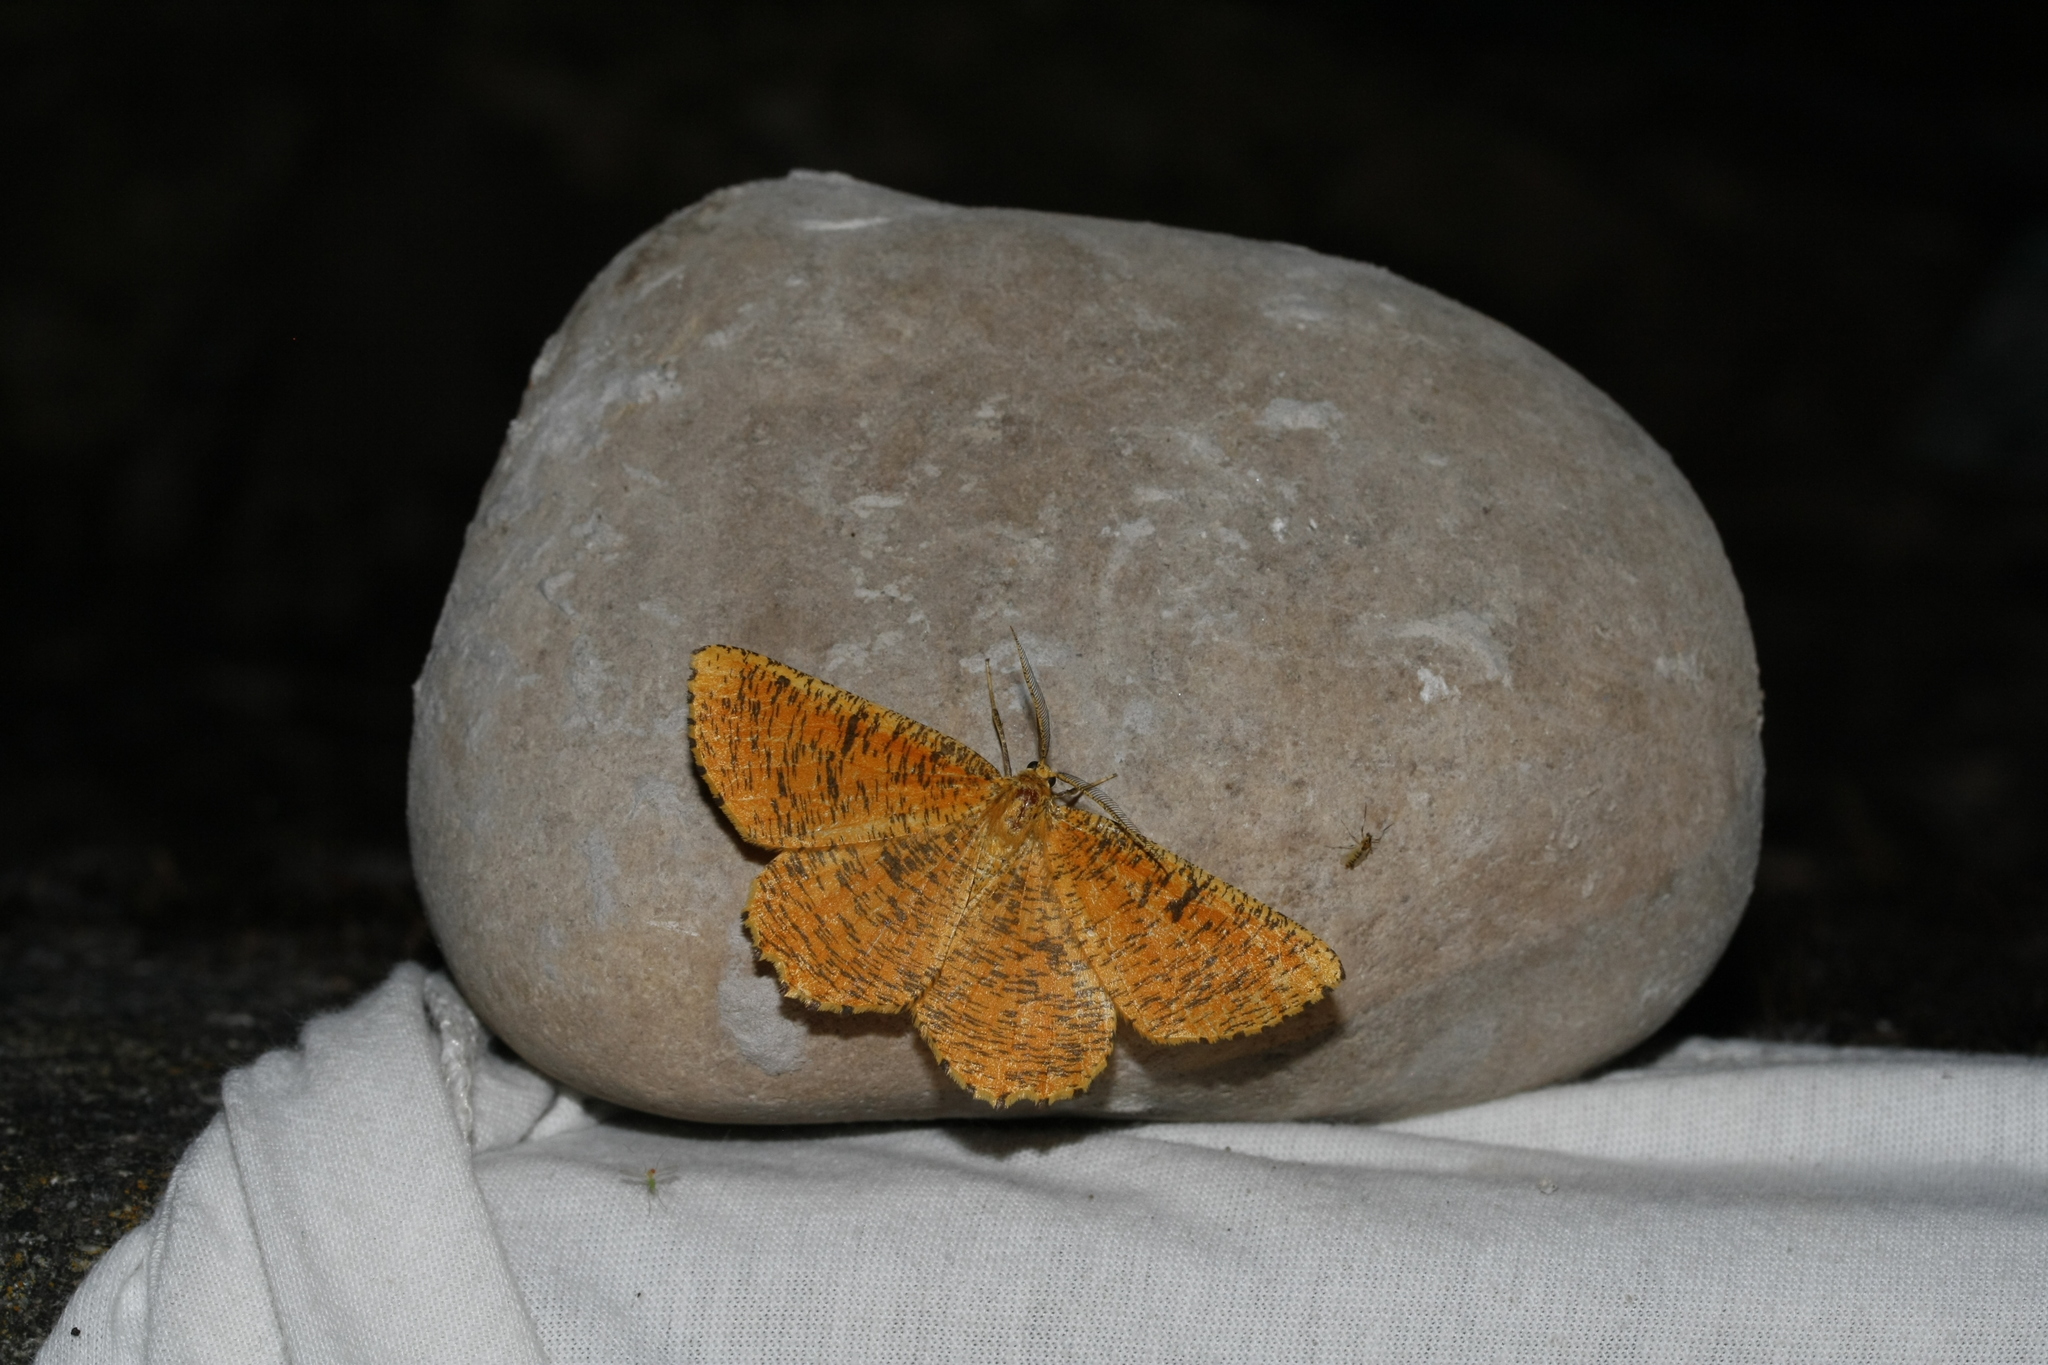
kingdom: Animalia
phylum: Arthropoda
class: Insecta
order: Lepidoptera
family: Geometridae
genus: Angerona
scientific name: Angerona prunaria
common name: Orange moth
